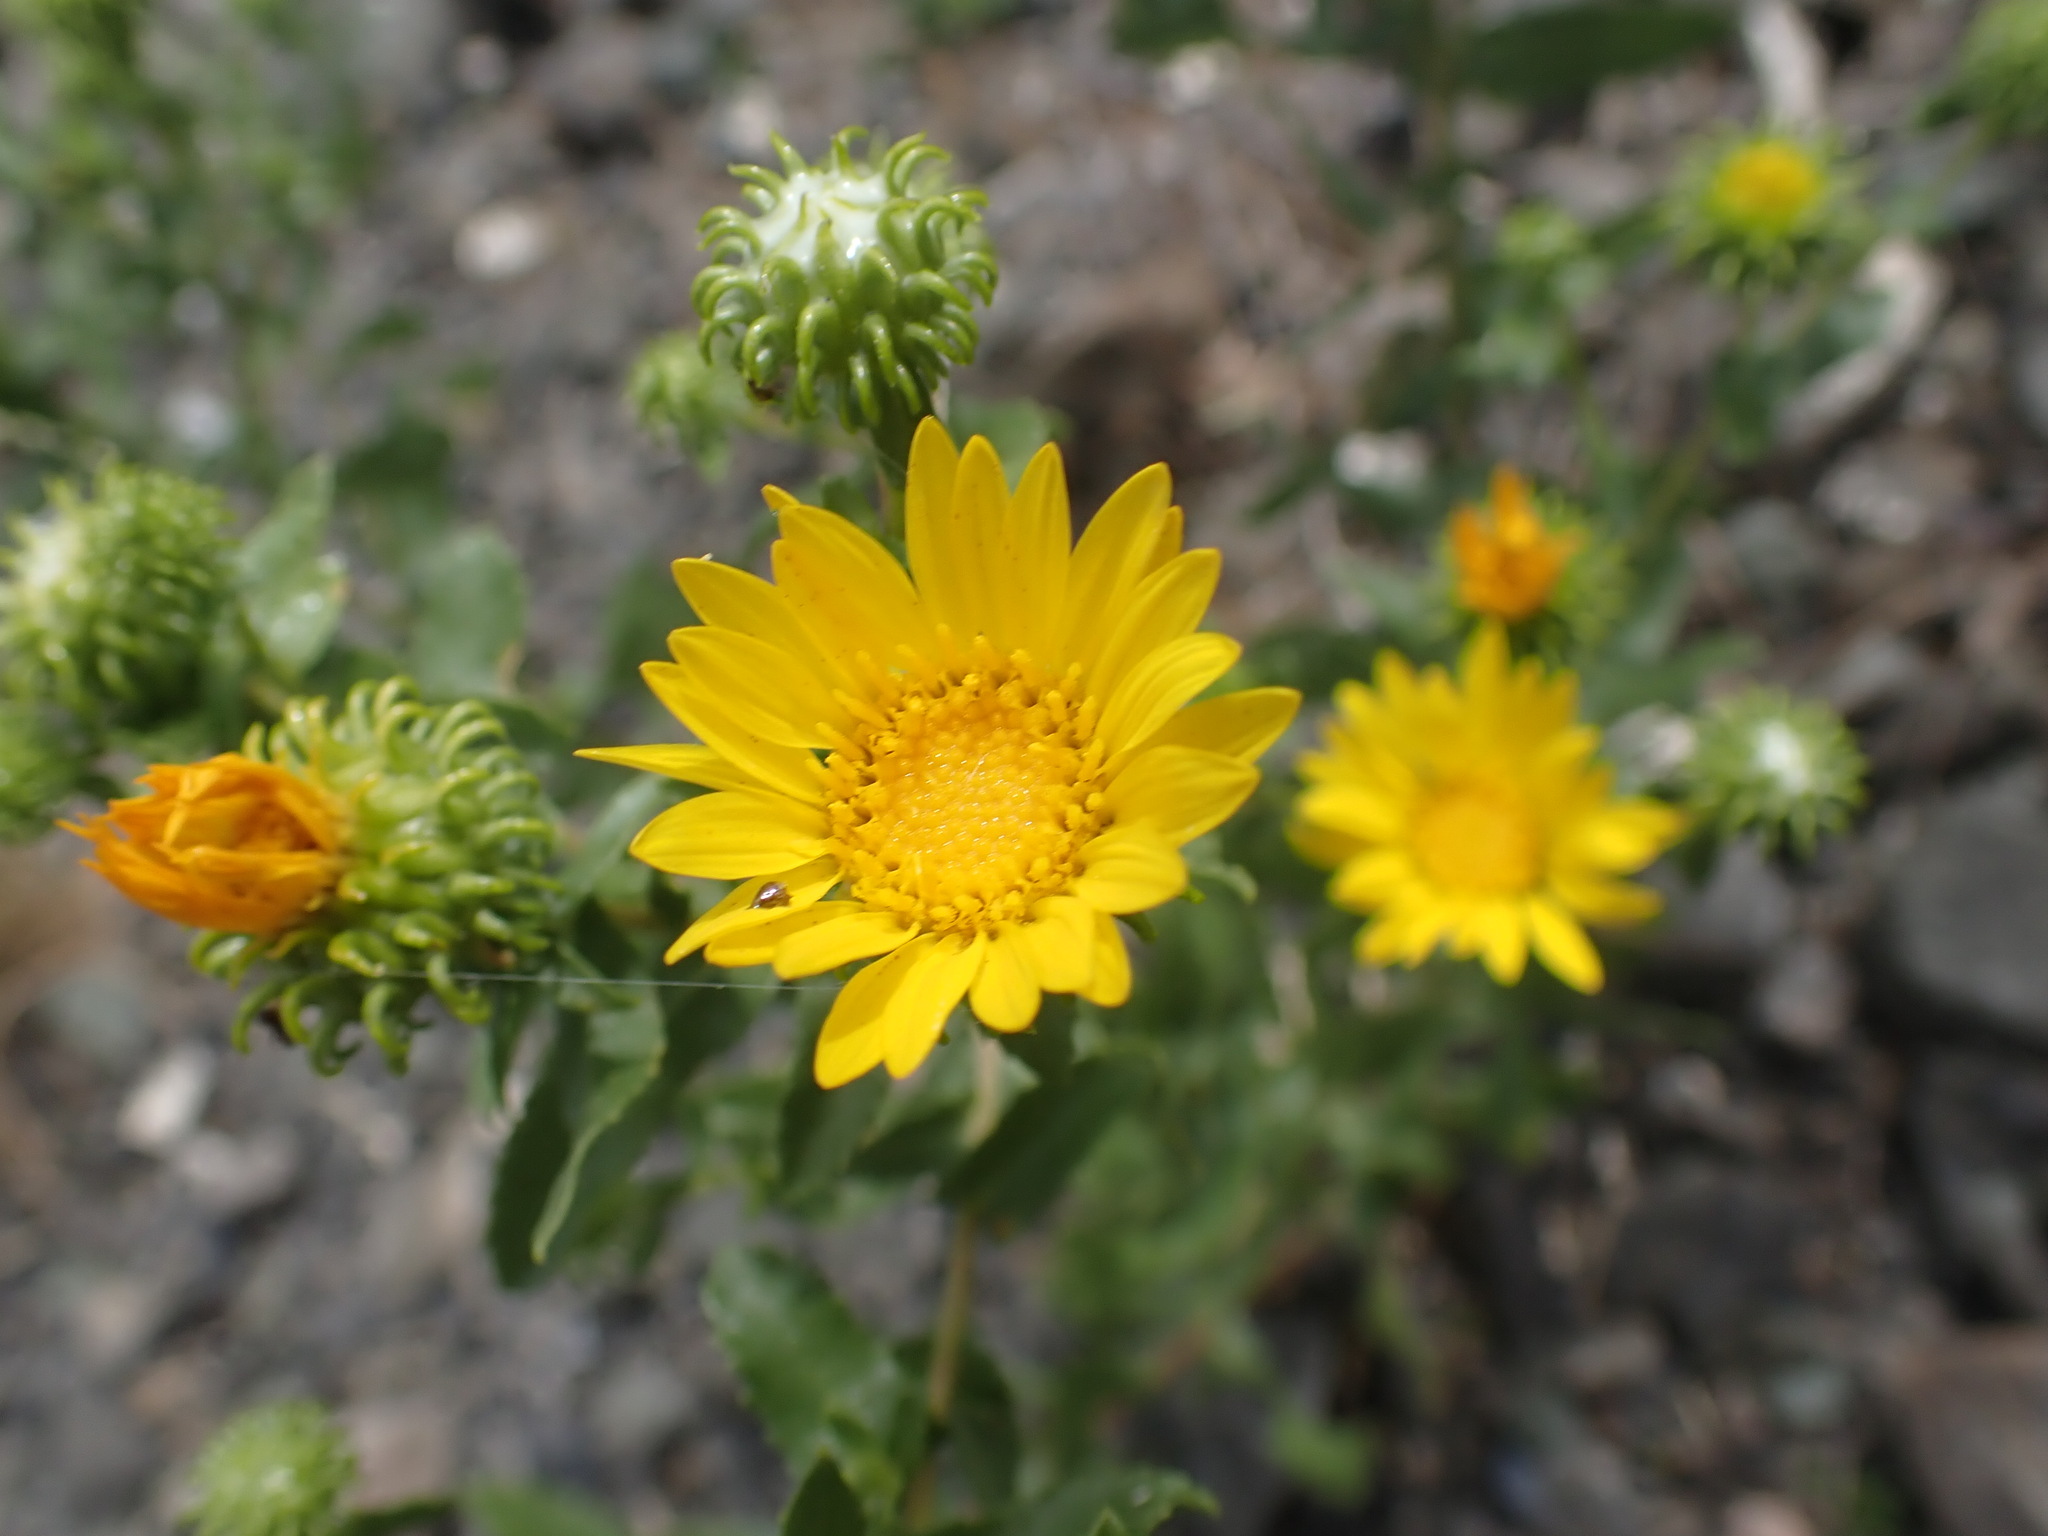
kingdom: Plantae
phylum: Tracheophyta
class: Magnoliopsida
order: Asterales
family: Asteraceae
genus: Grindelia
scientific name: Grindelia squarrosa
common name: Curly-cup gumweed
